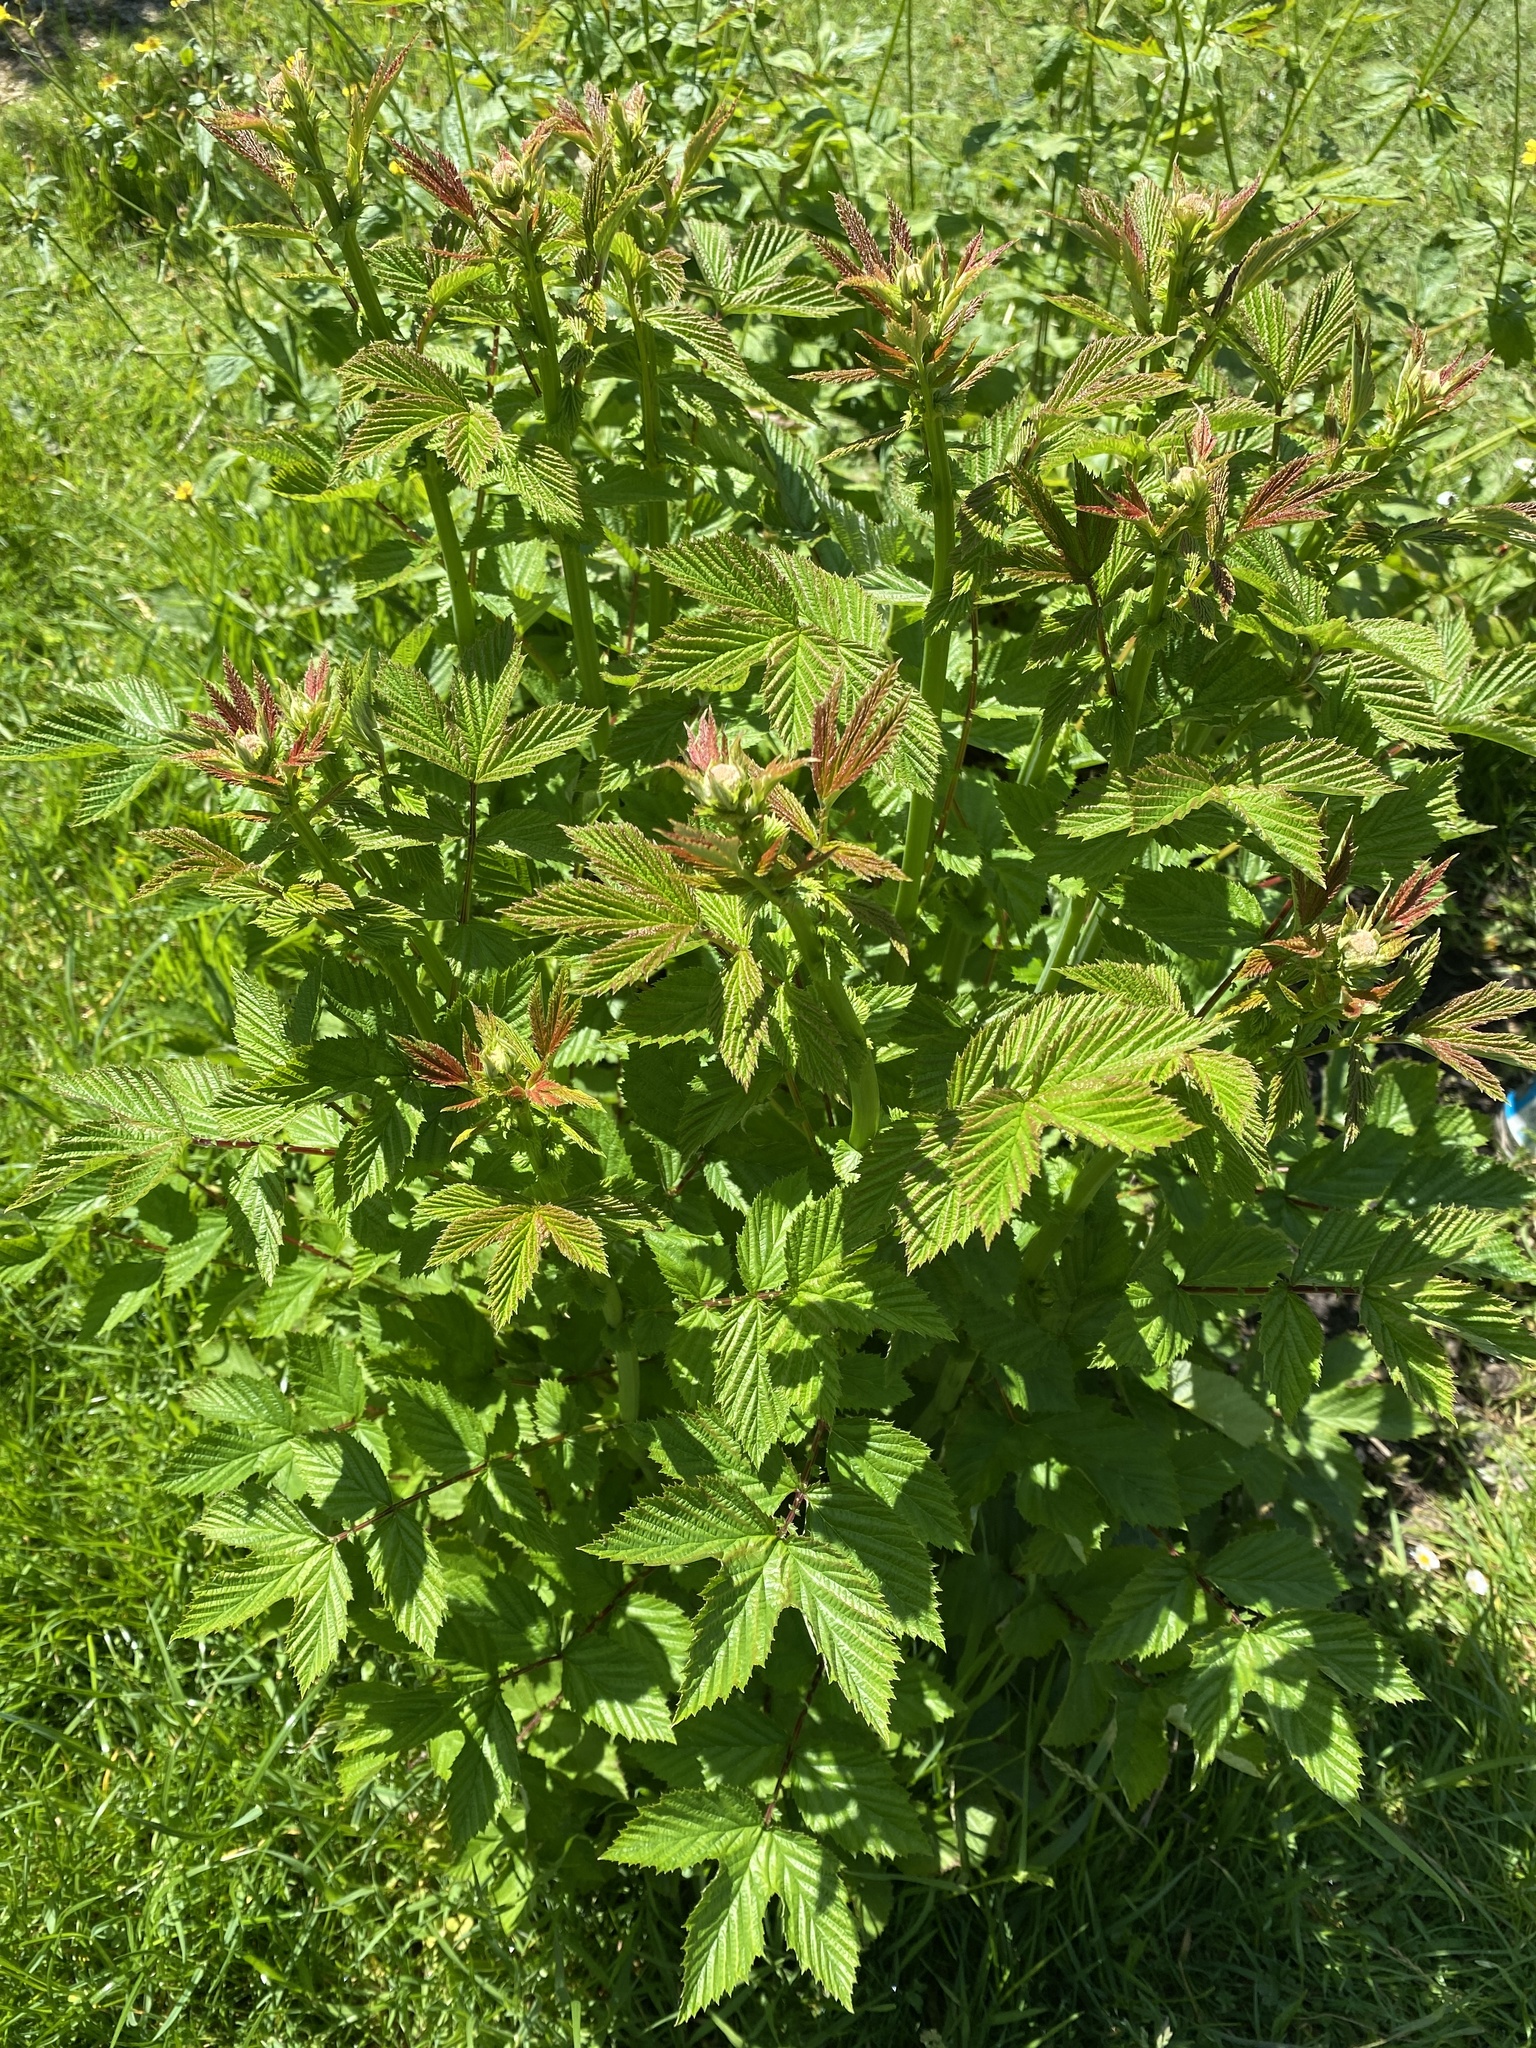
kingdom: Plantae
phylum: Tracheophyta
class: Magnoliopsida
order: Rosales
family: Rosaceae
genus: Filipendula
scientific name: Filipendula ulmaria
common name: Meadowsweet
